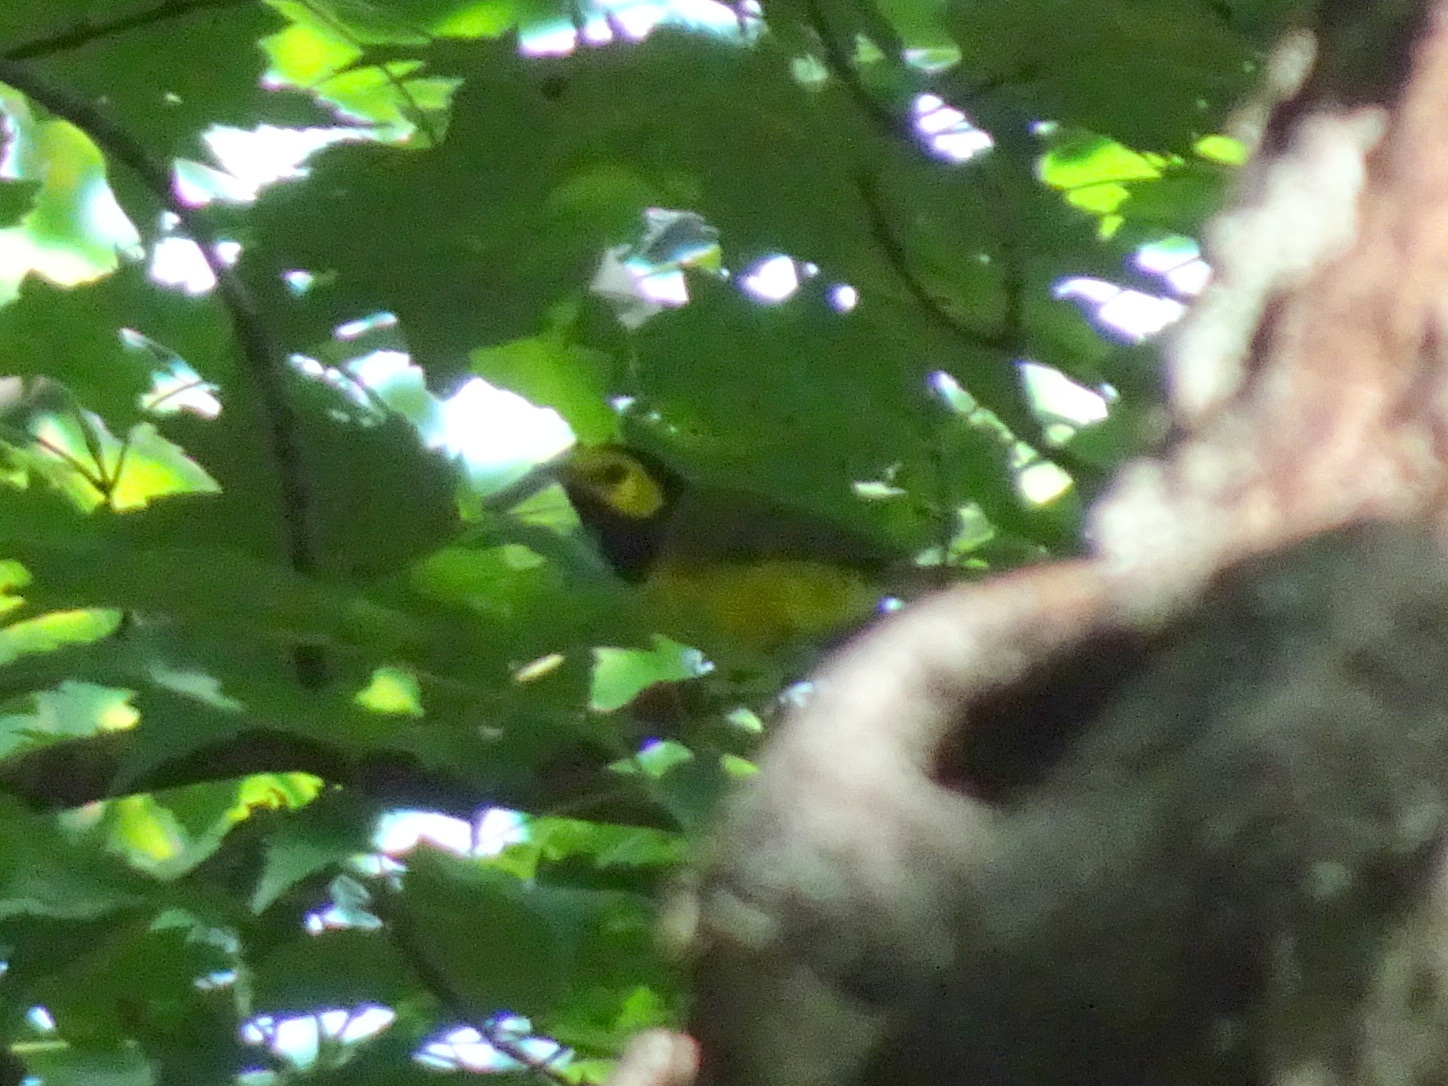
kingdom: Animalia
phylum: Chordata
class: Aves
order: Passeriformes
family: Parulidae
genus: Setophaga
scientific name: Setophaga citrina
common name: Hooded warbler
